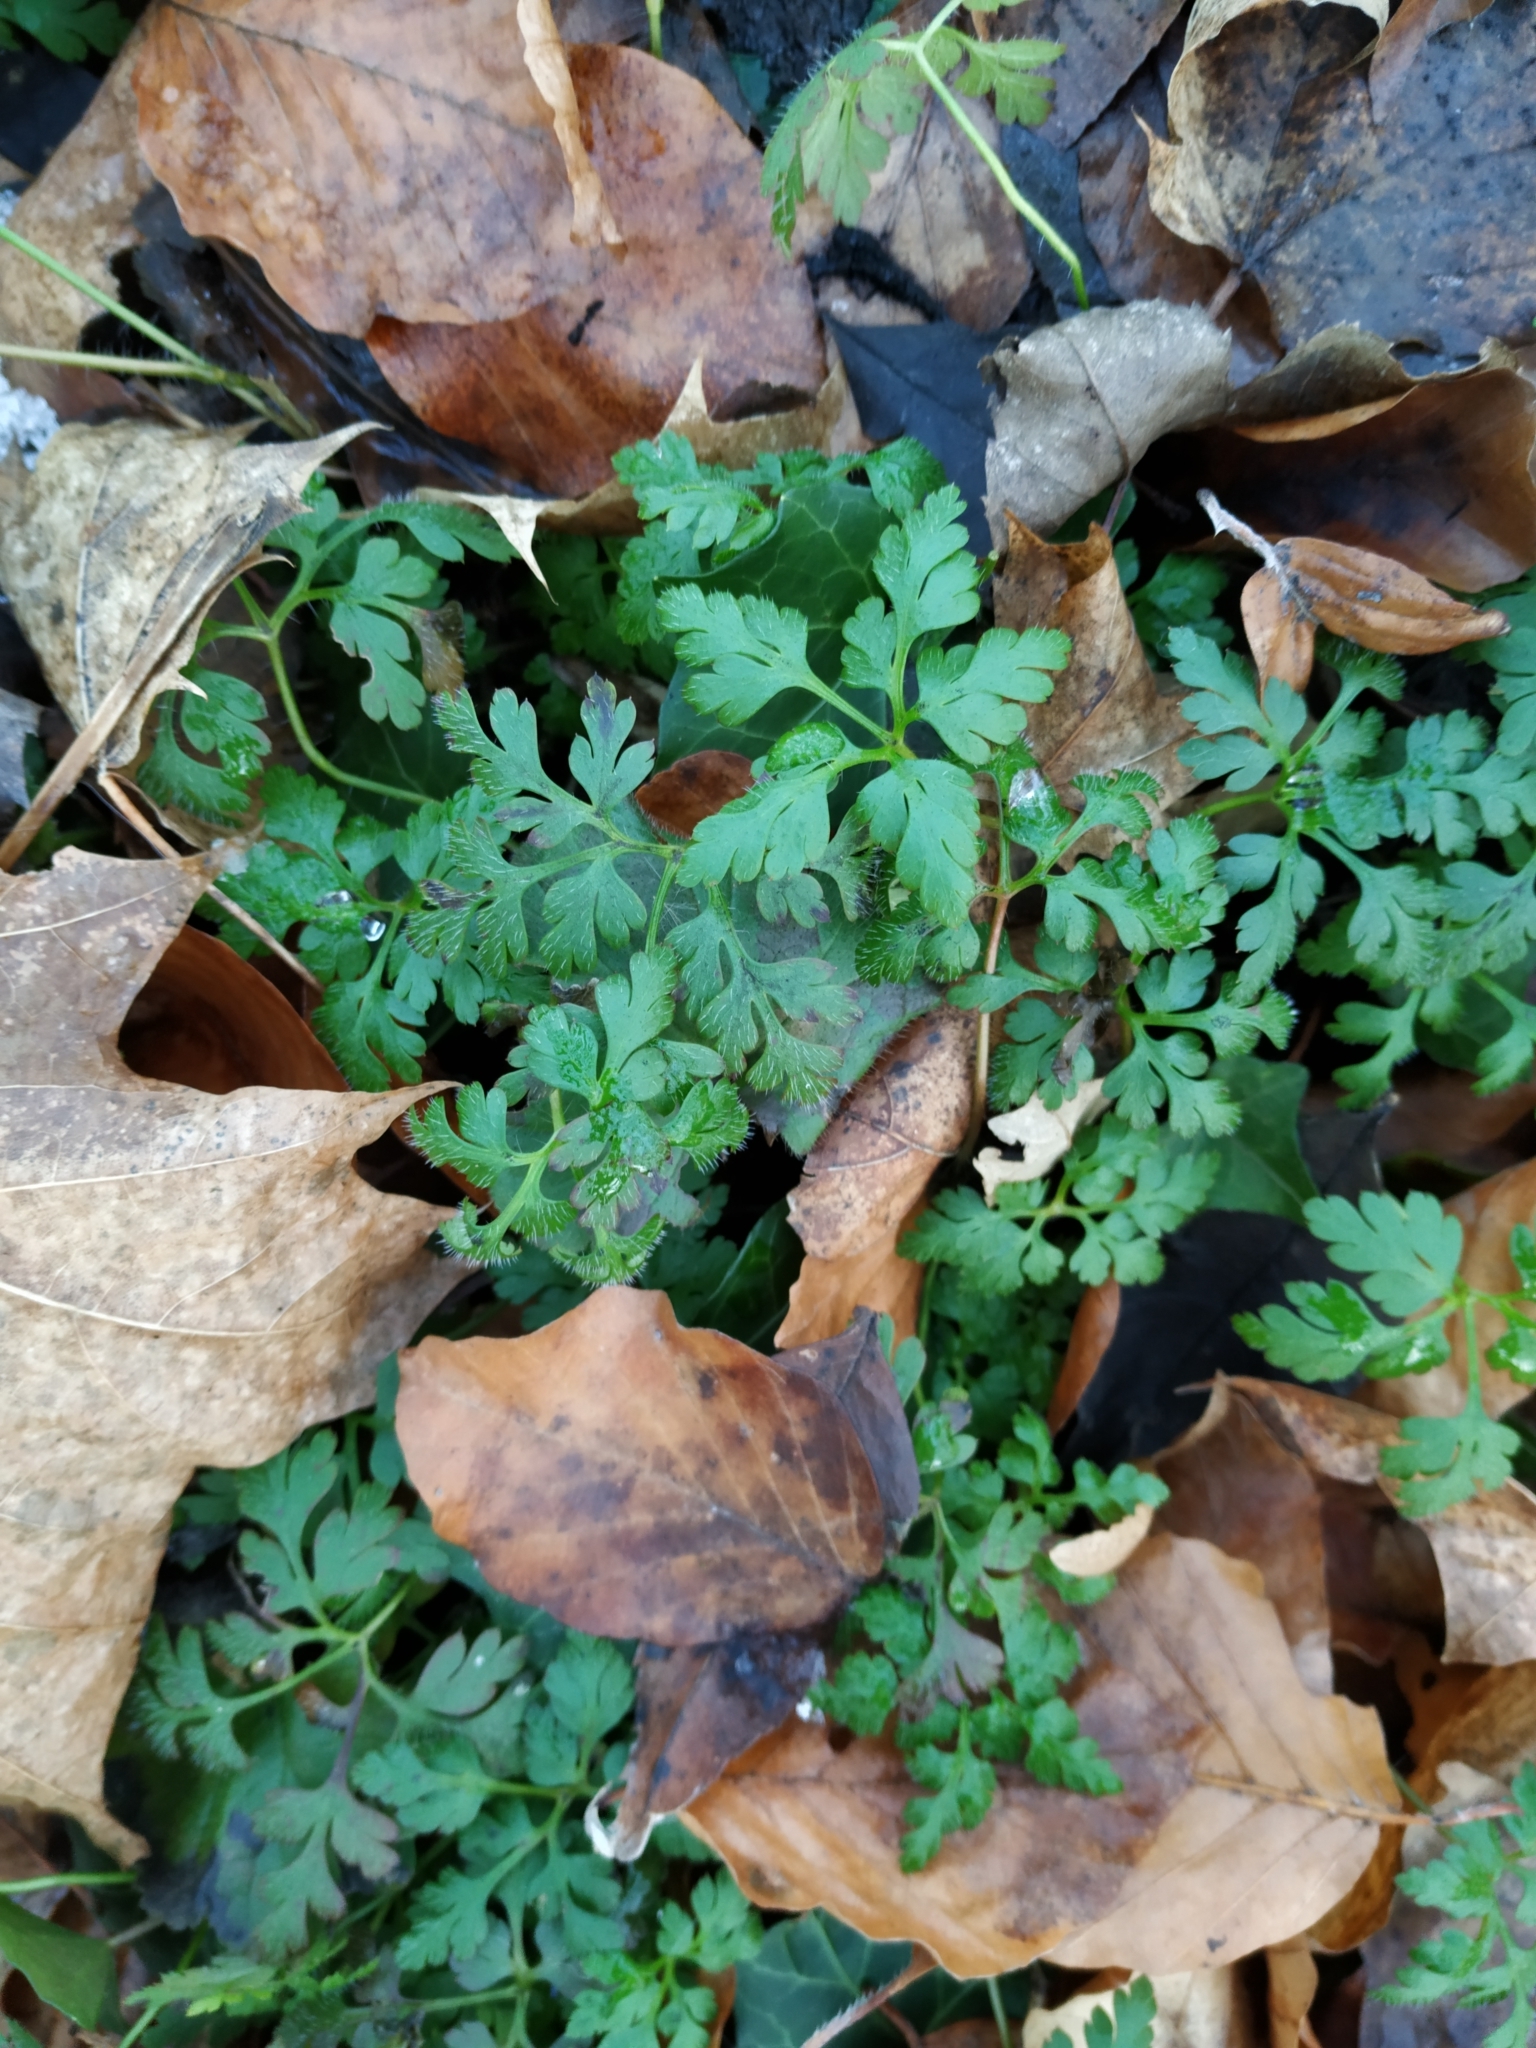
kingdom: Plantae
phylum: Tracheophyta
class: Magnoliopsida
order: Geraniales
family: Geraniaceae
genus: Geranium
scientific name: Geranium robertianum
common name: Herb-robert
